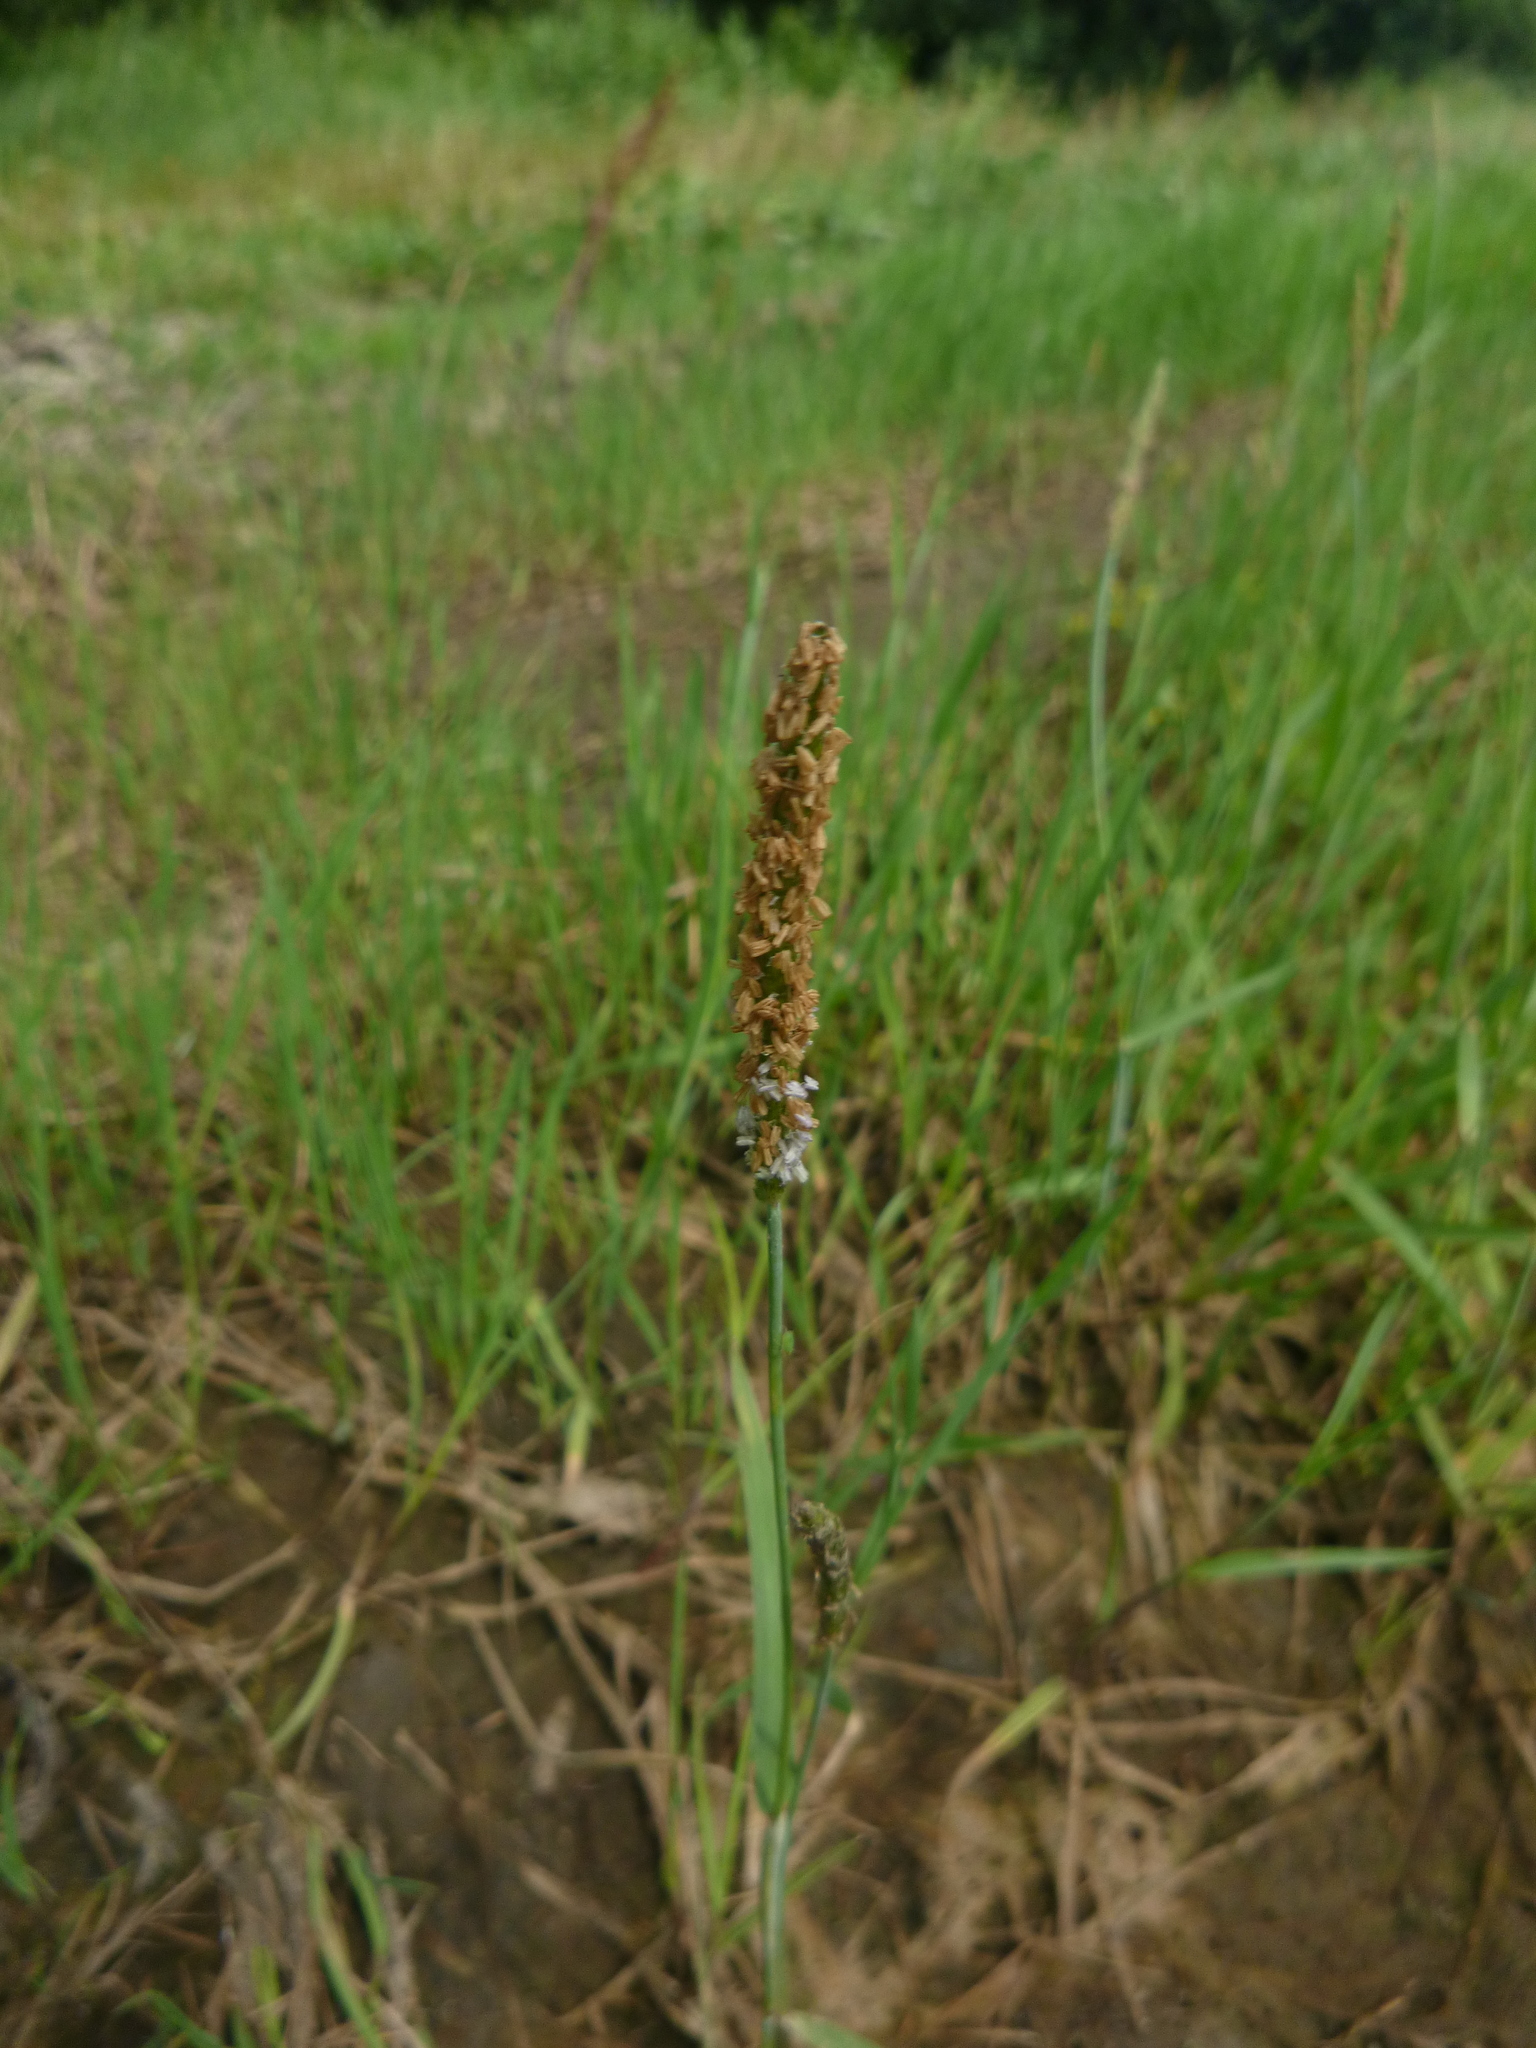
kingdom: Plantae
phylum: Tracheophyta
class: Liliopsida
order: Poales
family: Poaceae
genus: Alopecurus
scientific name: Alopecurus geniculatus
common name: Water foxtail
